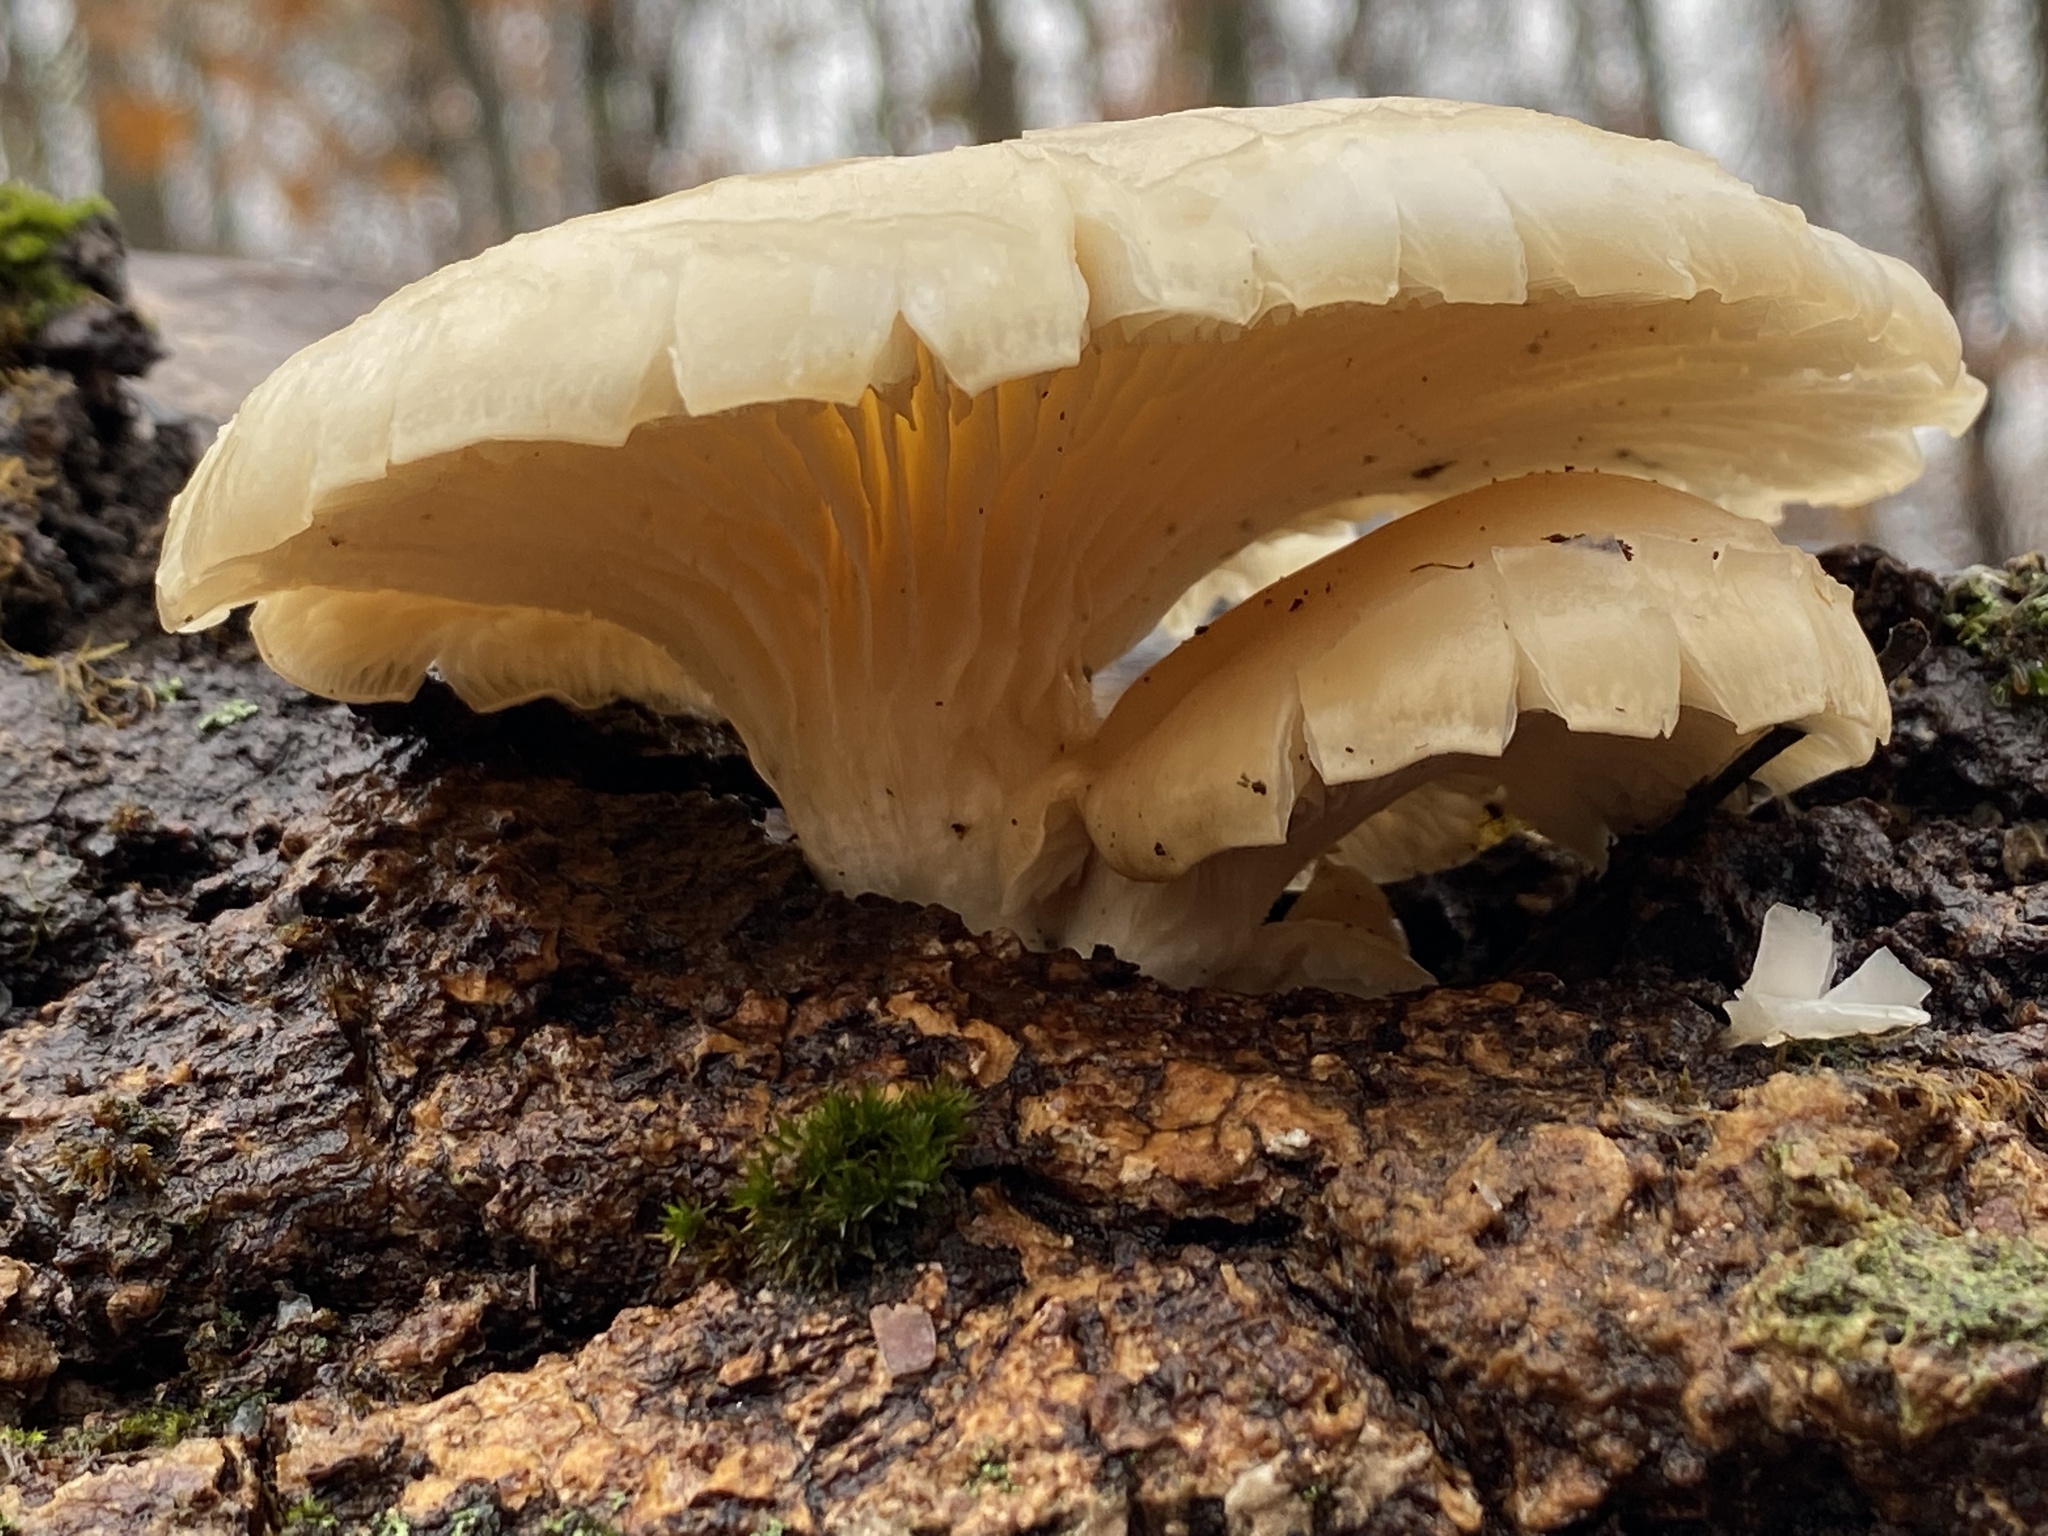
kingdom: Fungi
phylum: Basidiomycota
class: Agaricomycetes
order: Agaricales
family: Pleurotaceae
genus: Pleurotus
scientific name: Pleurotus ostreatus
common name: Oyster mushroom
